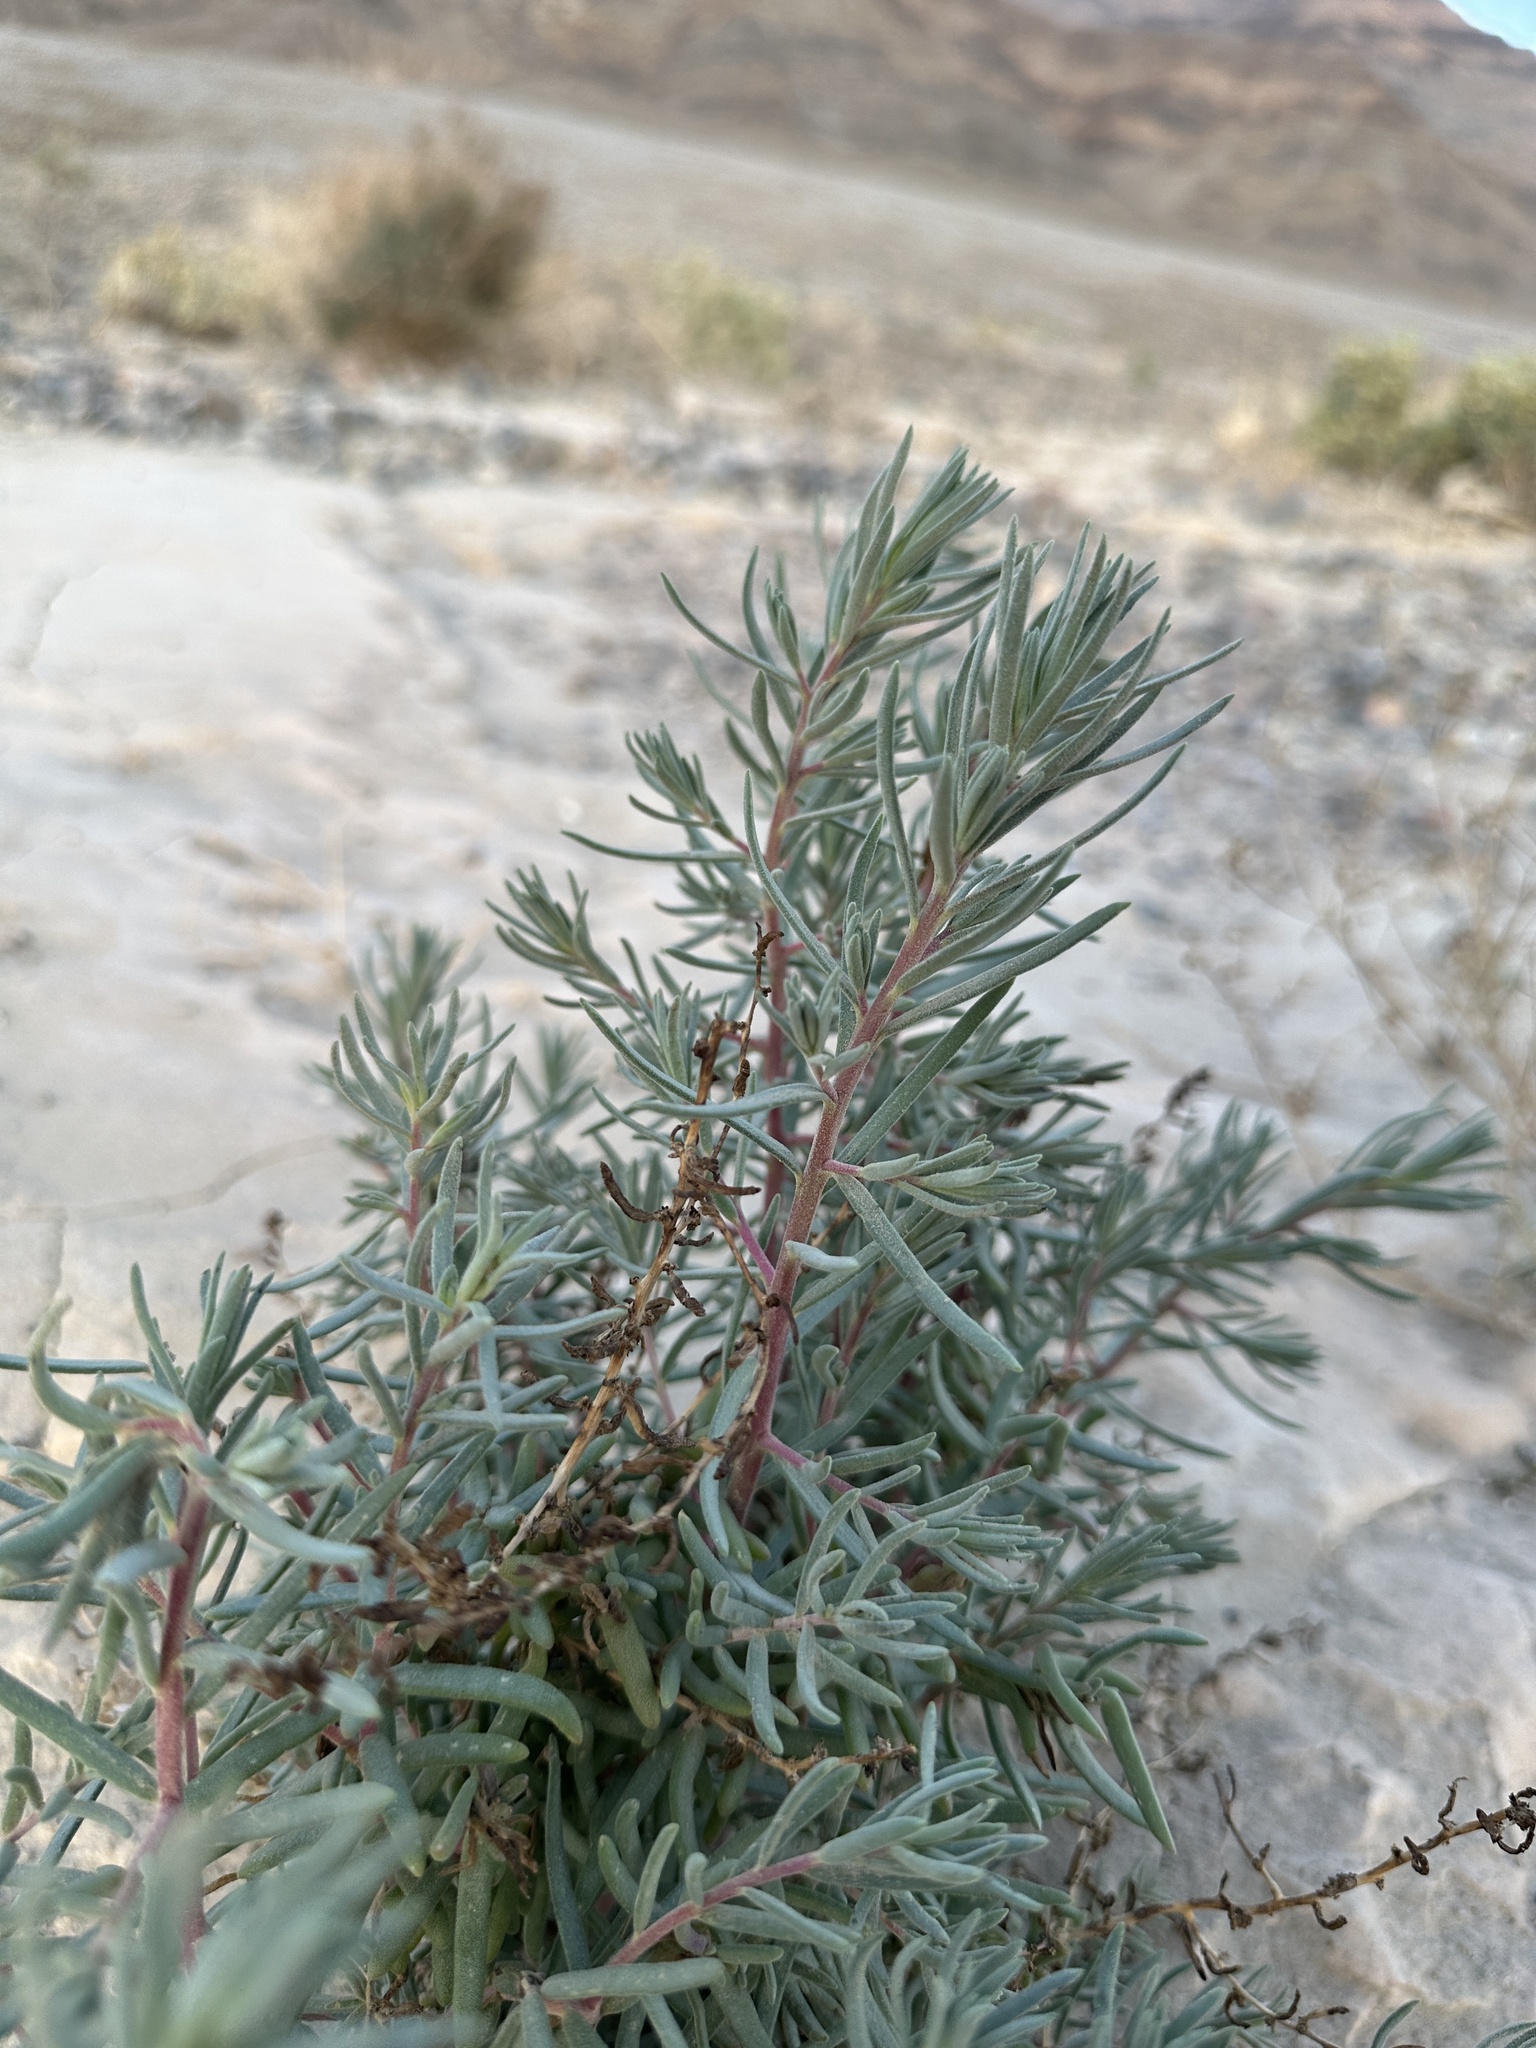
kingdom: Plantae
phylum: Tracheophyta
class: Magnoliopsida
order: Caryophyllales
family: Amaranthaceae
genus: Suaeda
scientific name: Suaeda nigra
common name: Bush seepweed
